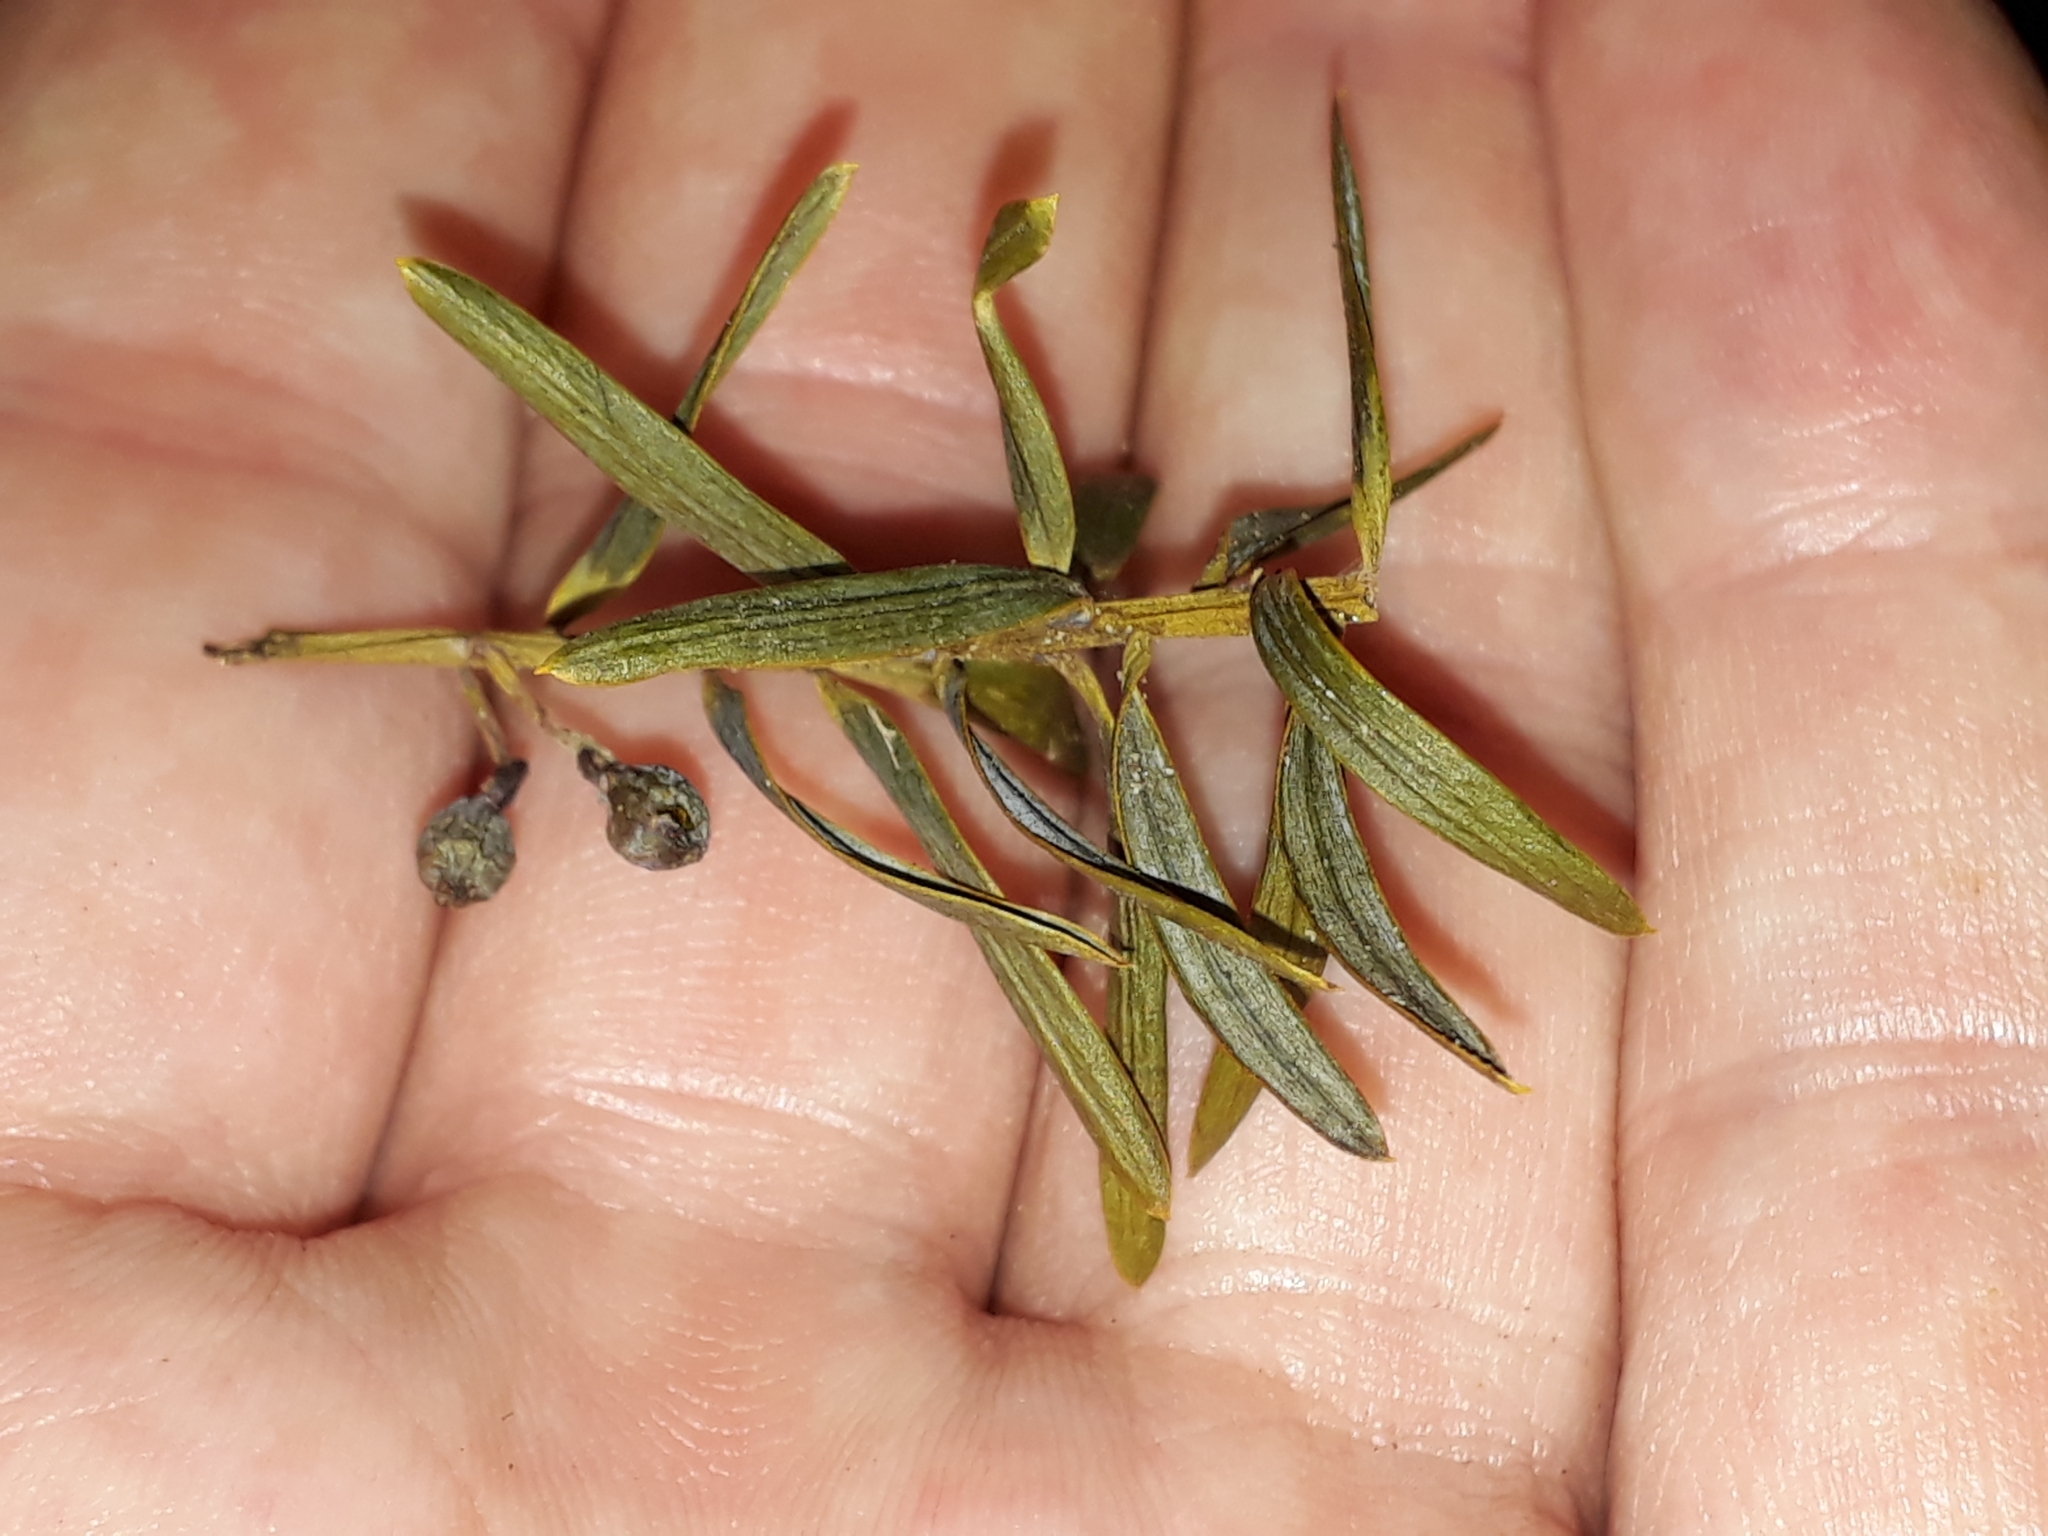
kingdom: Plantae
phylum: Tracheophyta
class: Pinopsida
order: Pinales
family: Podocarpaceae
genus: Podocarpus
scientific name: Podocarpus totara
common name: Totara
